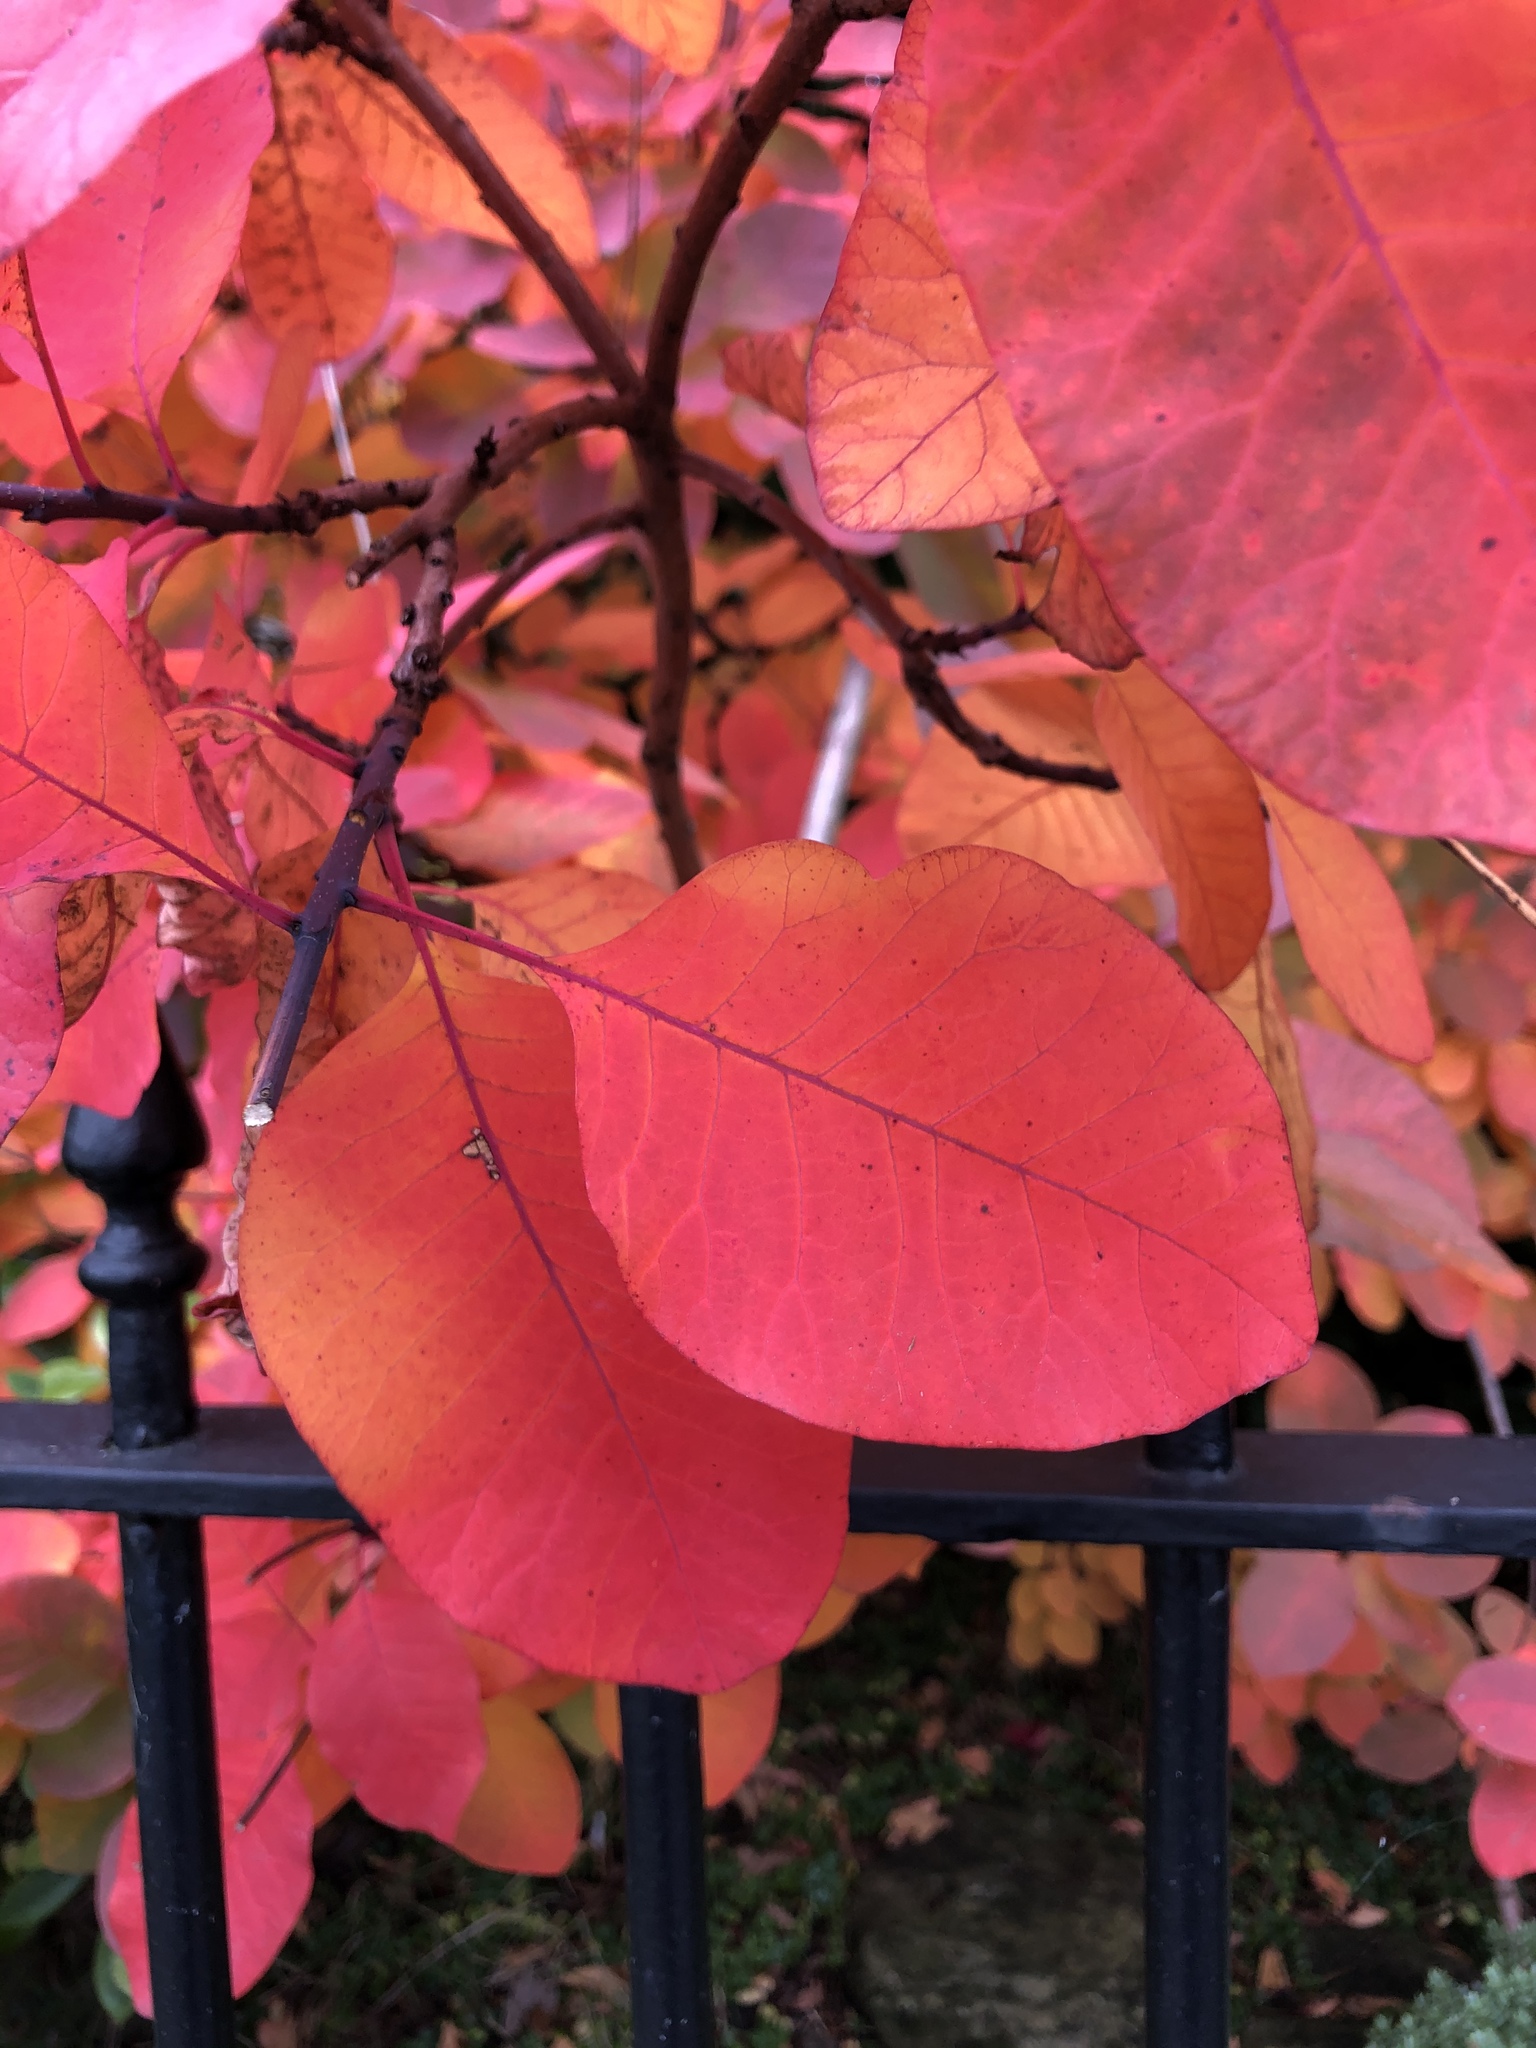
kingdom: Plantae
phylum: Tracheophyta
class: Magnoliopsida
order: Sapindales
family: Anacardiaceae
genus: Cotinus
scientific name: Cotinus coggygria
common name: Smoke-tree
